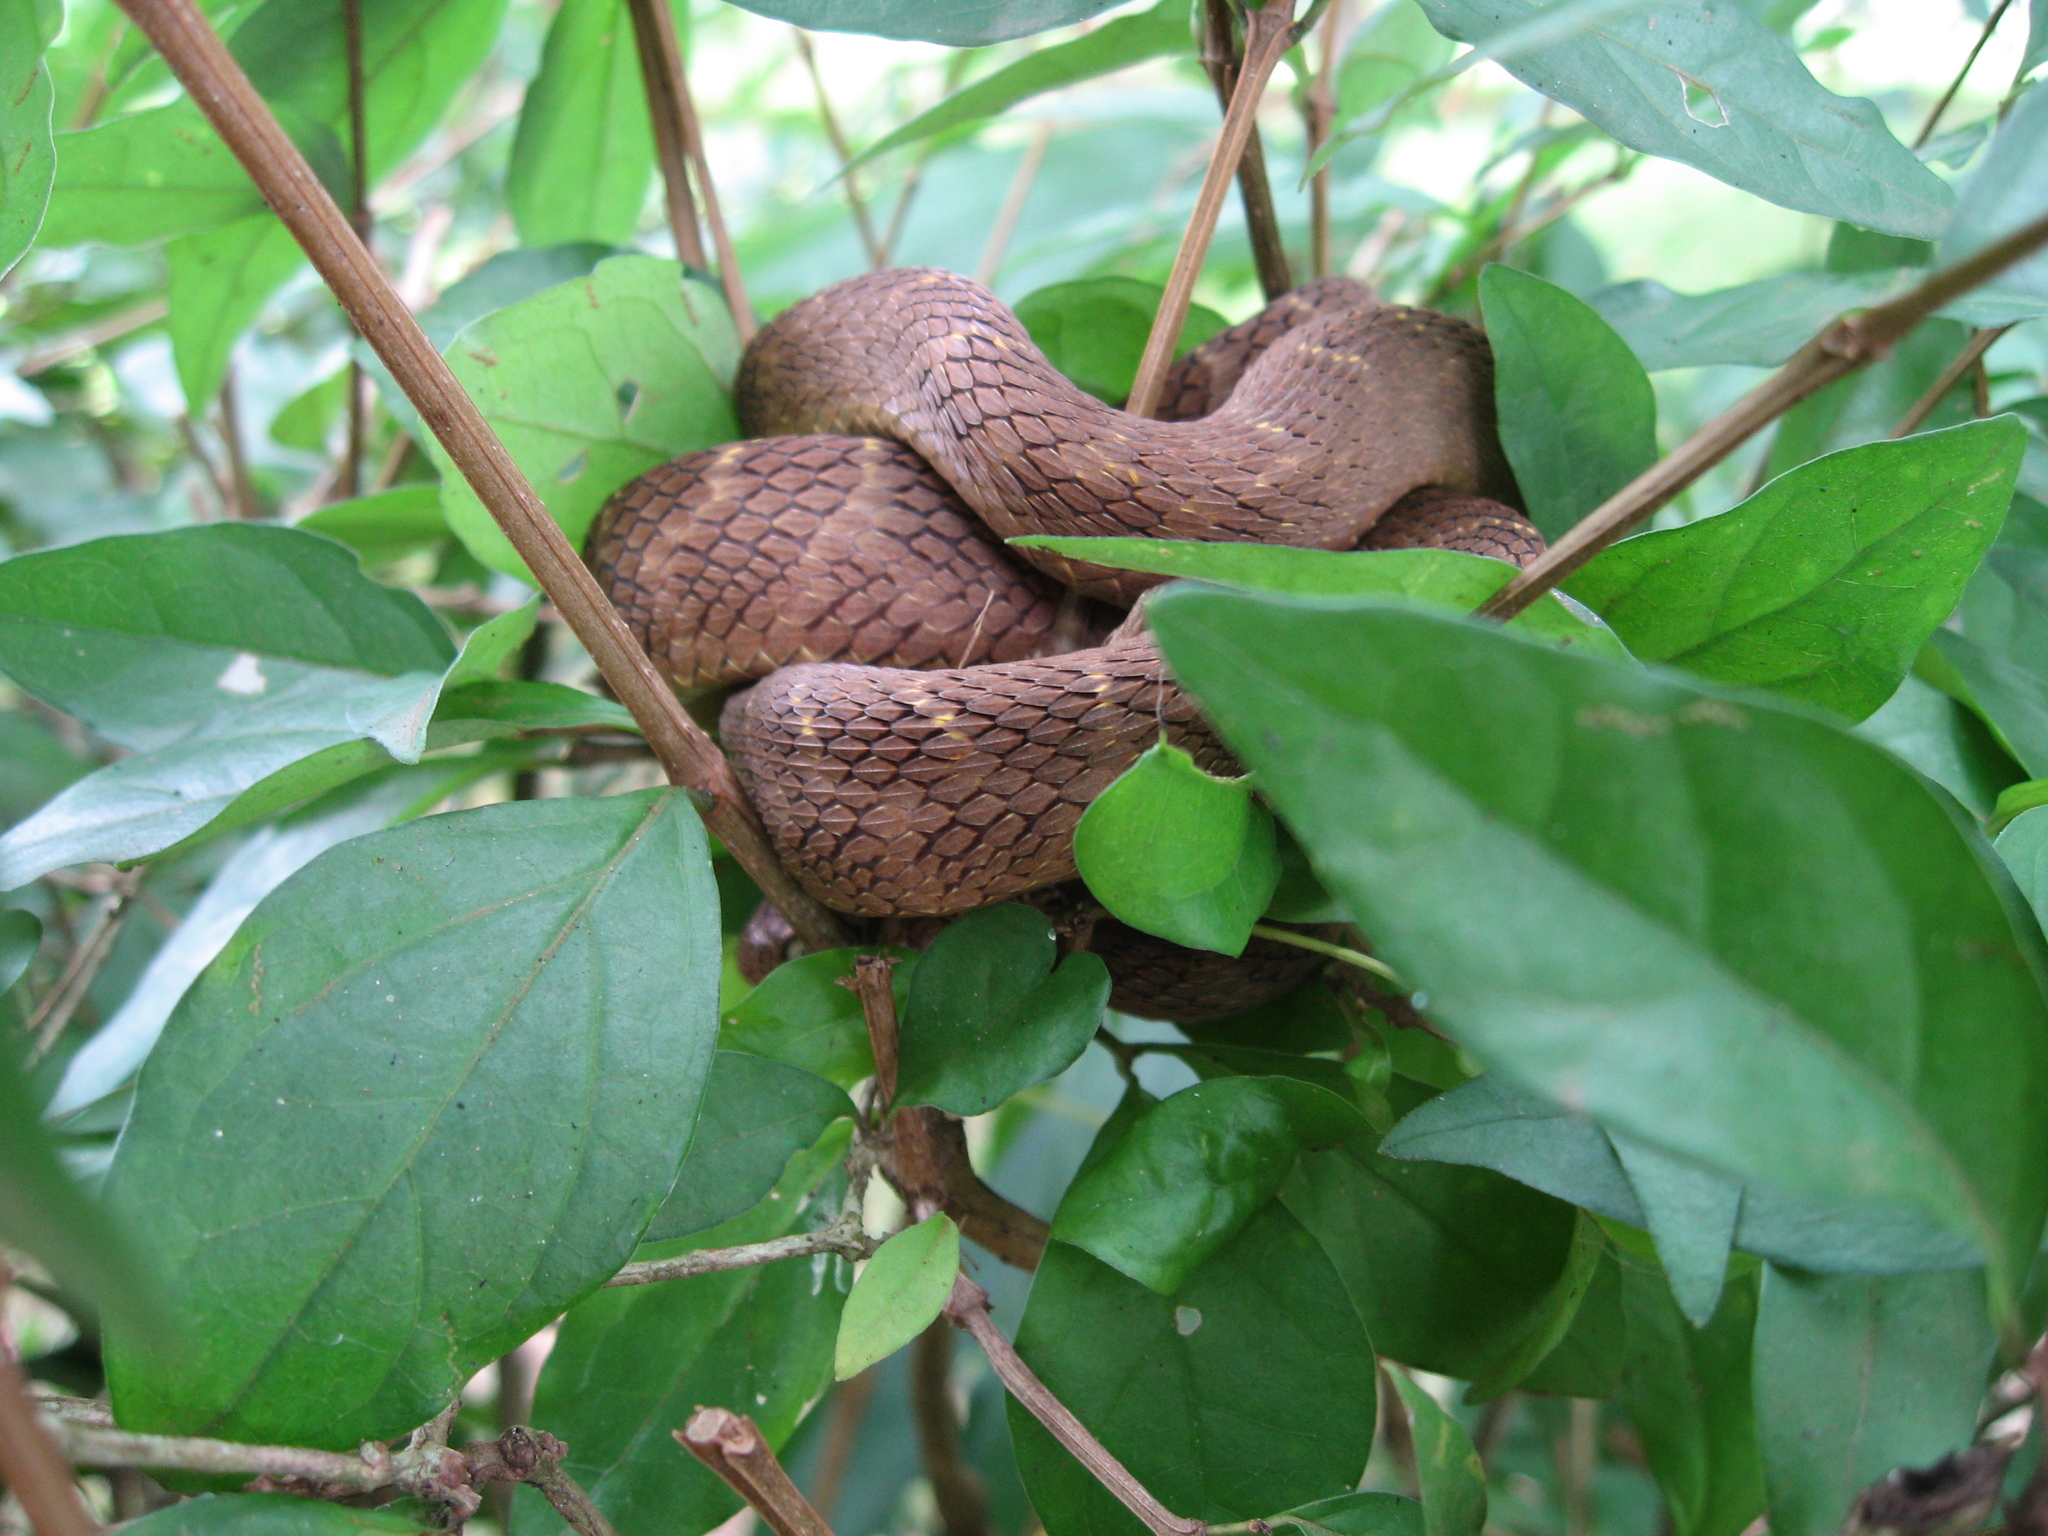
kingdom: Animalia
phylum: Chordata
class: Squamata
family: Colubridae
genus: Dasypeltis
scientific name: Dasypeltis fasciata
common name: Central african egg-eating snake
